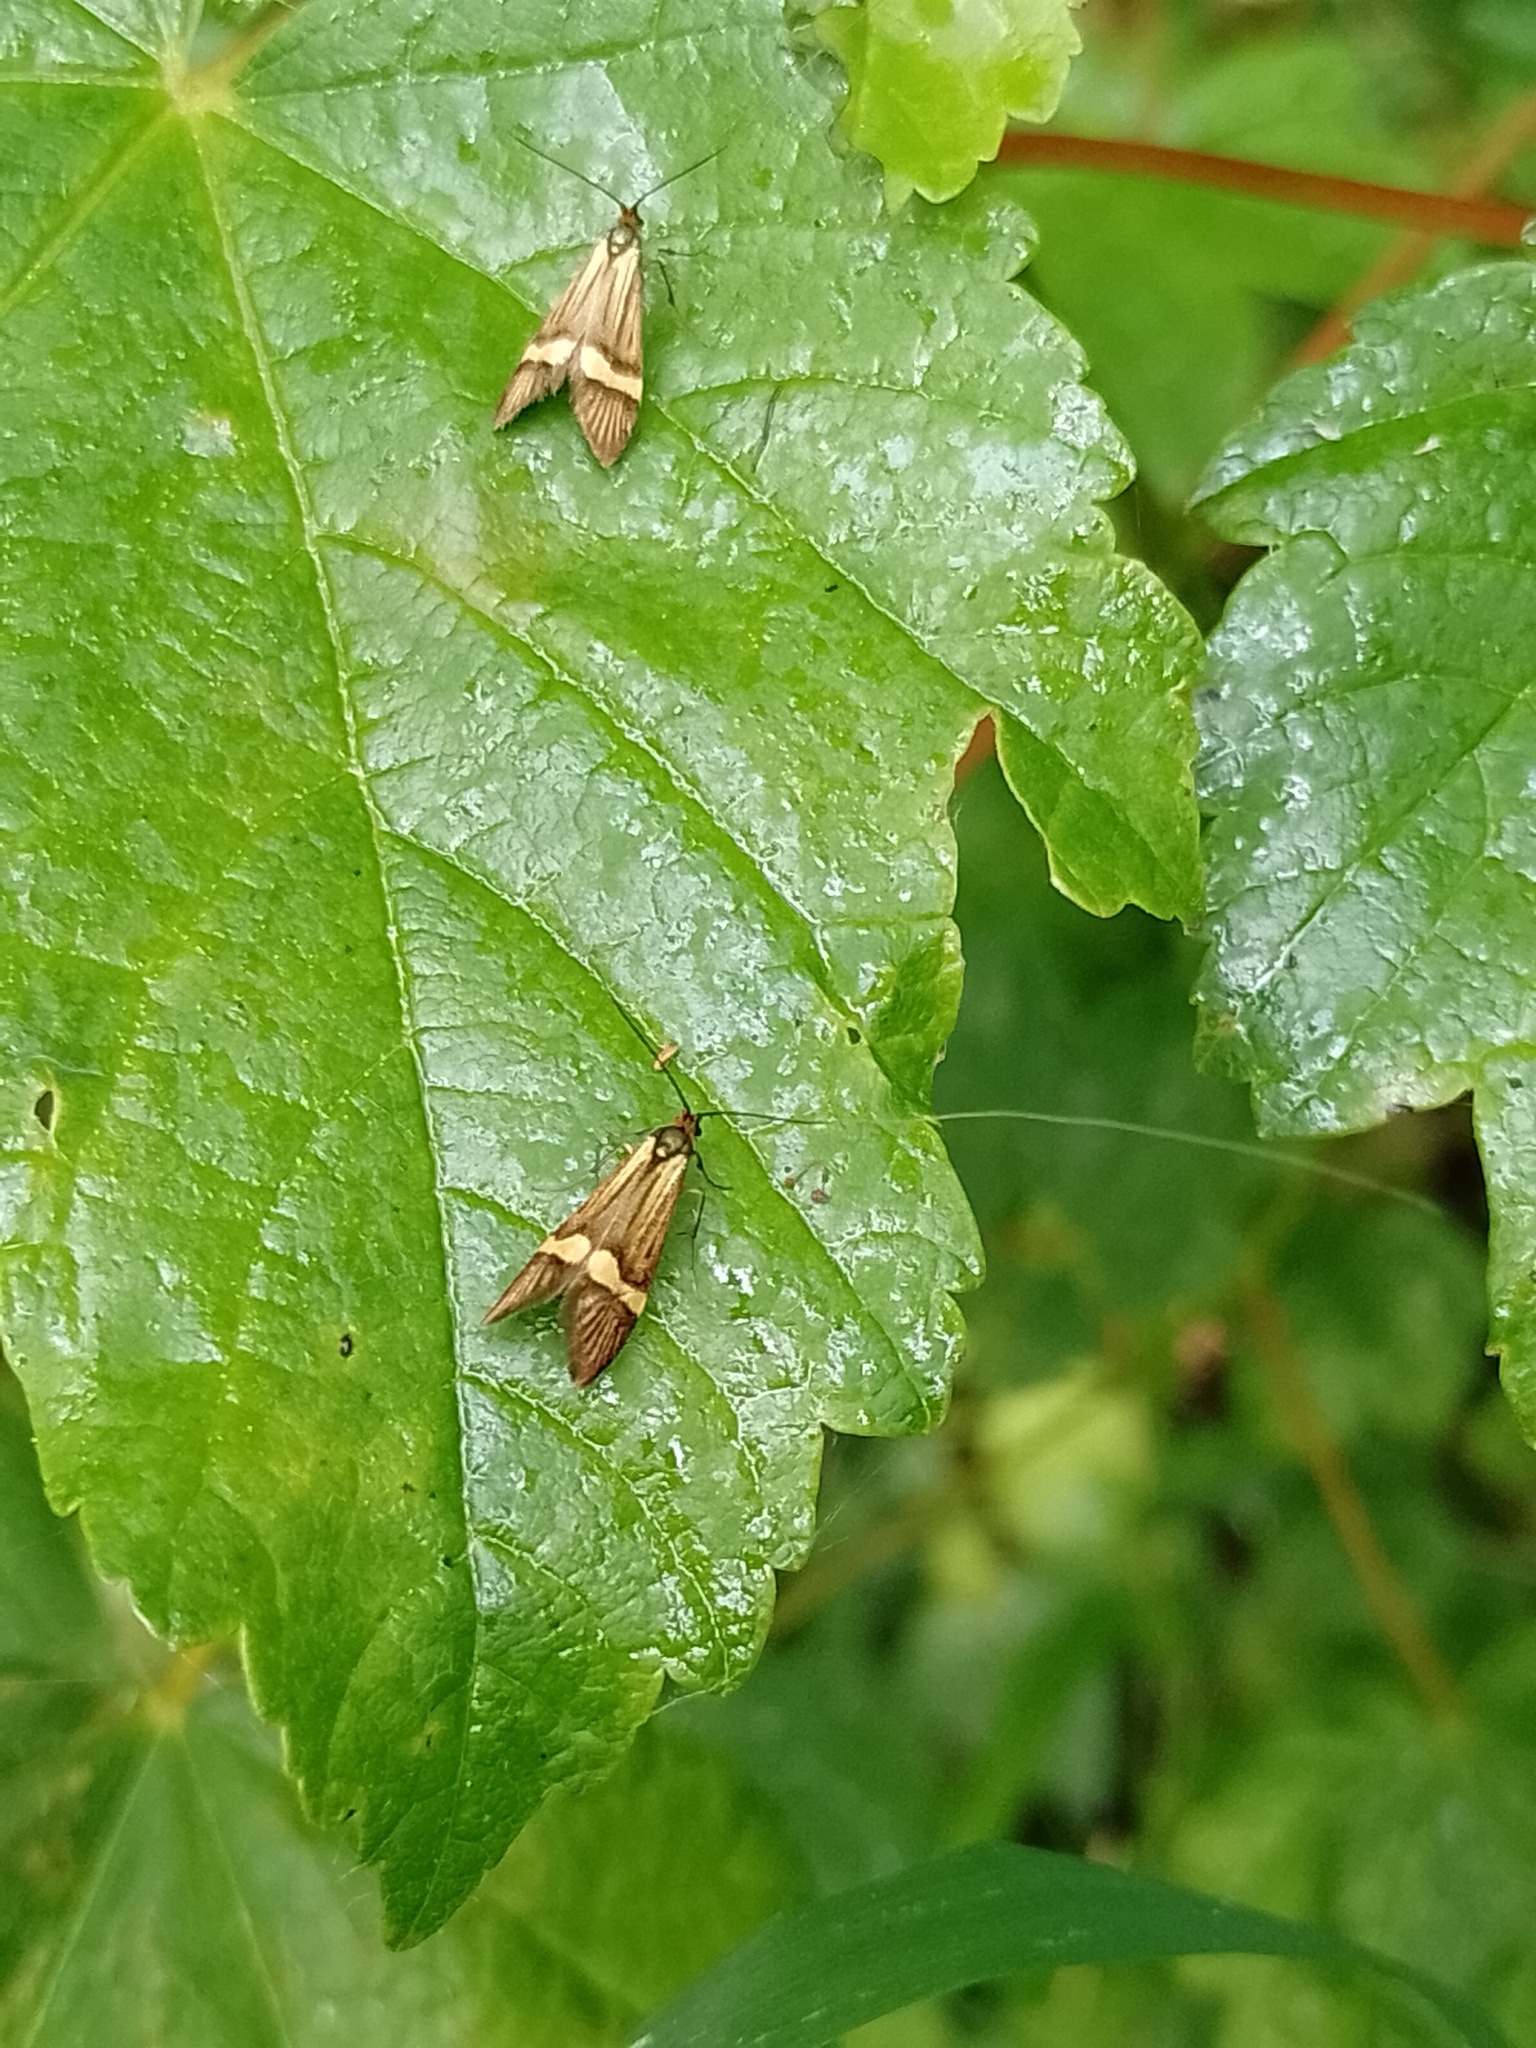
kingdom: Animalia
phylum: Arthropoda
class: Insecta
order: Lepidoptera
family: Adelidae
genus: Nemophora
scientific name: Nemophora degeerella
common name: Yellow-barred long-horn
